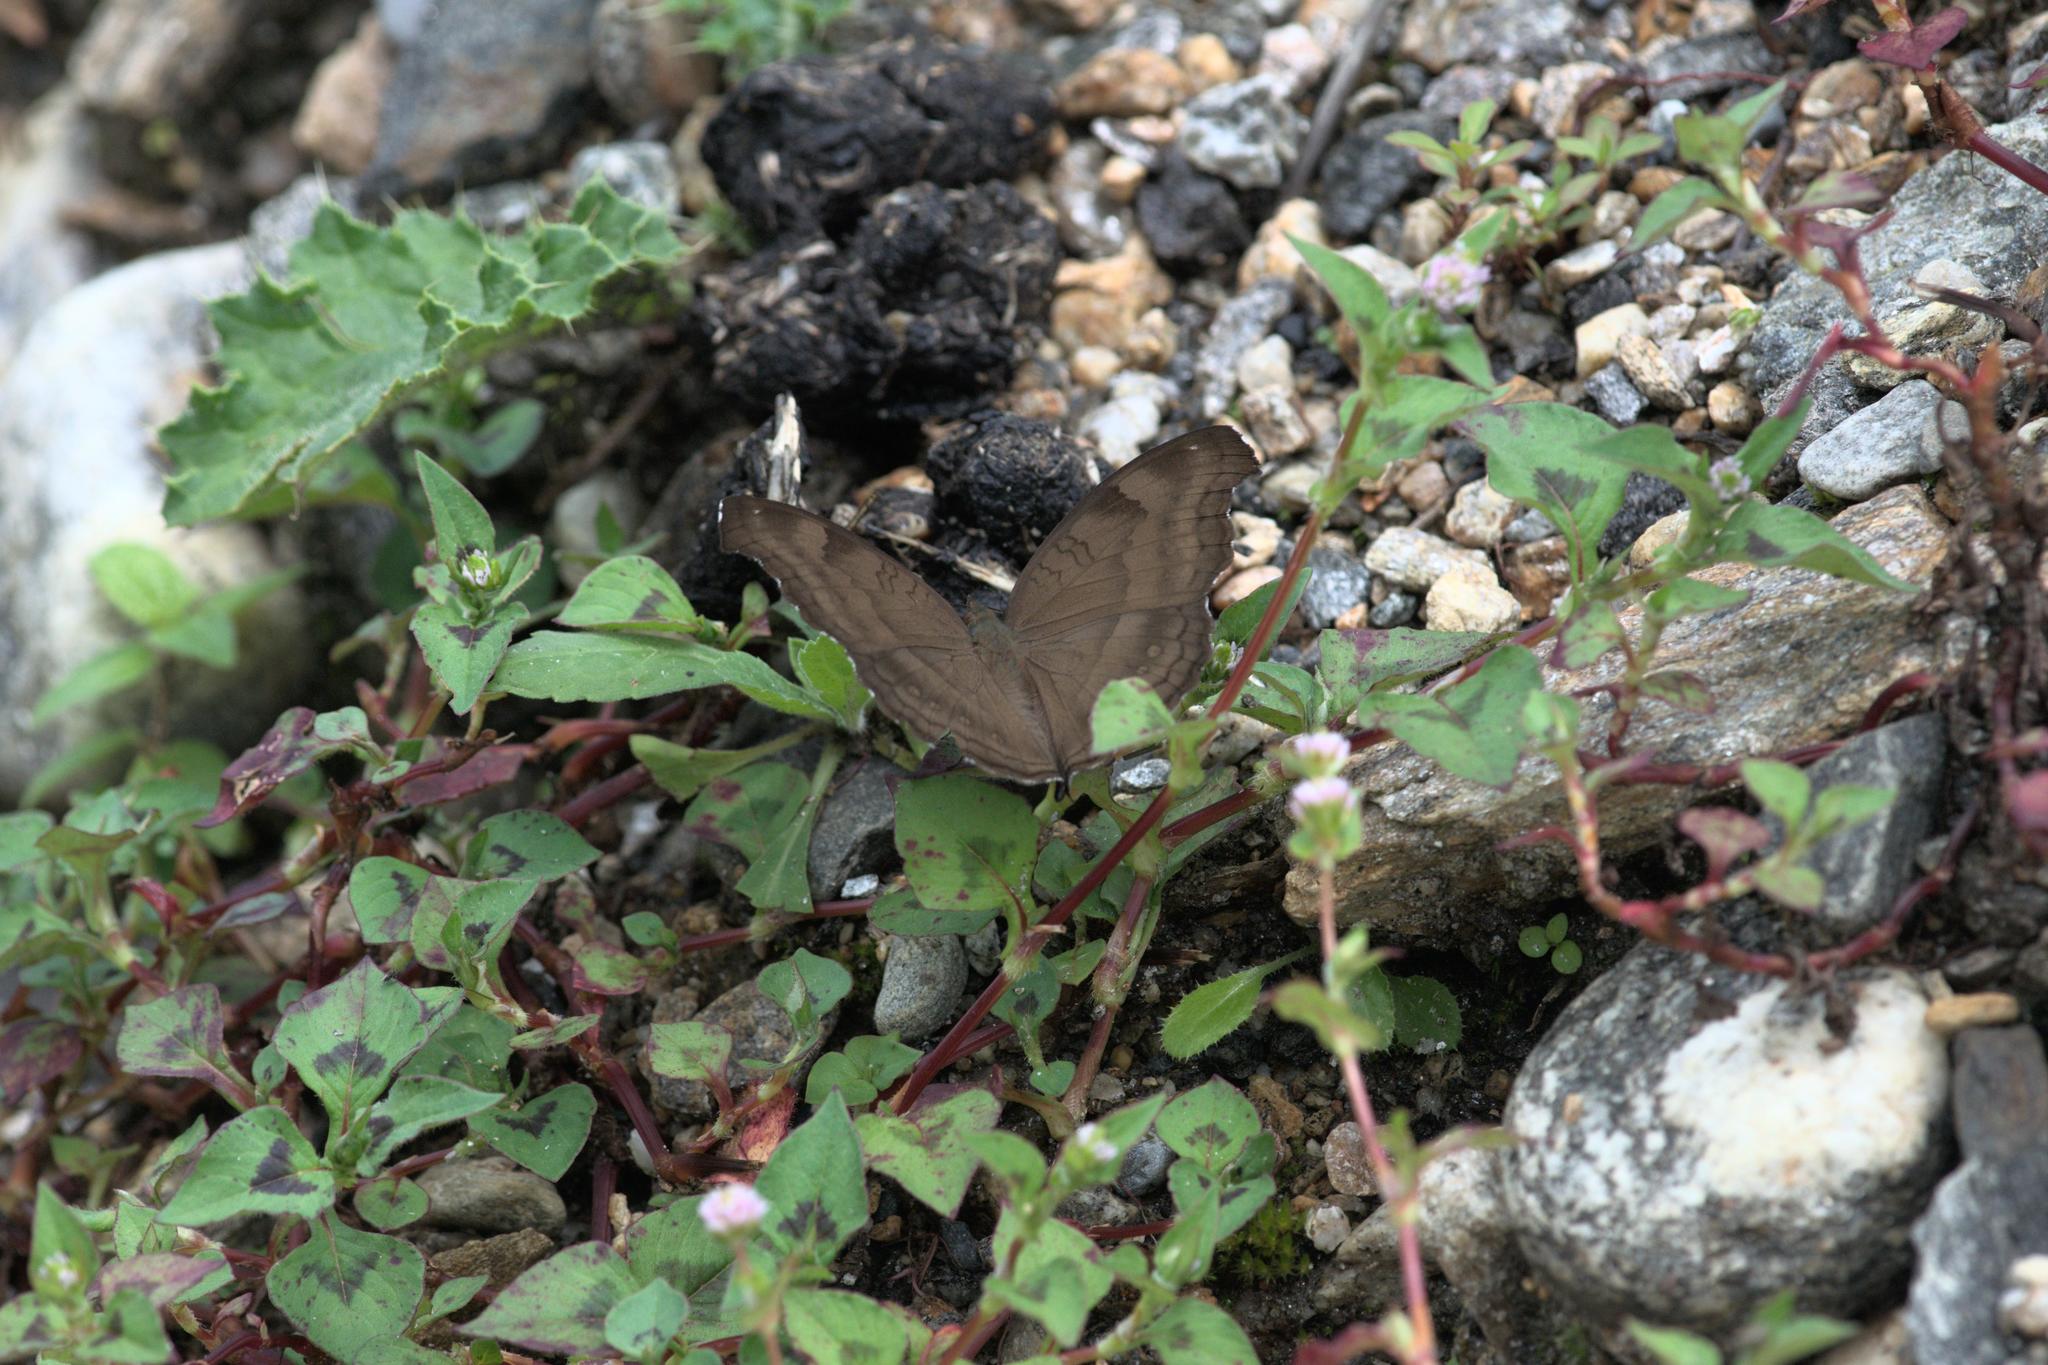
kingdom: Animalia
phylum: Arthropoda
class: Insecta
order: Lepidoptera
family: Nymphalidae
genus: Junonia
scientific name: Junonia iphita
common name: Chocolate pansy
